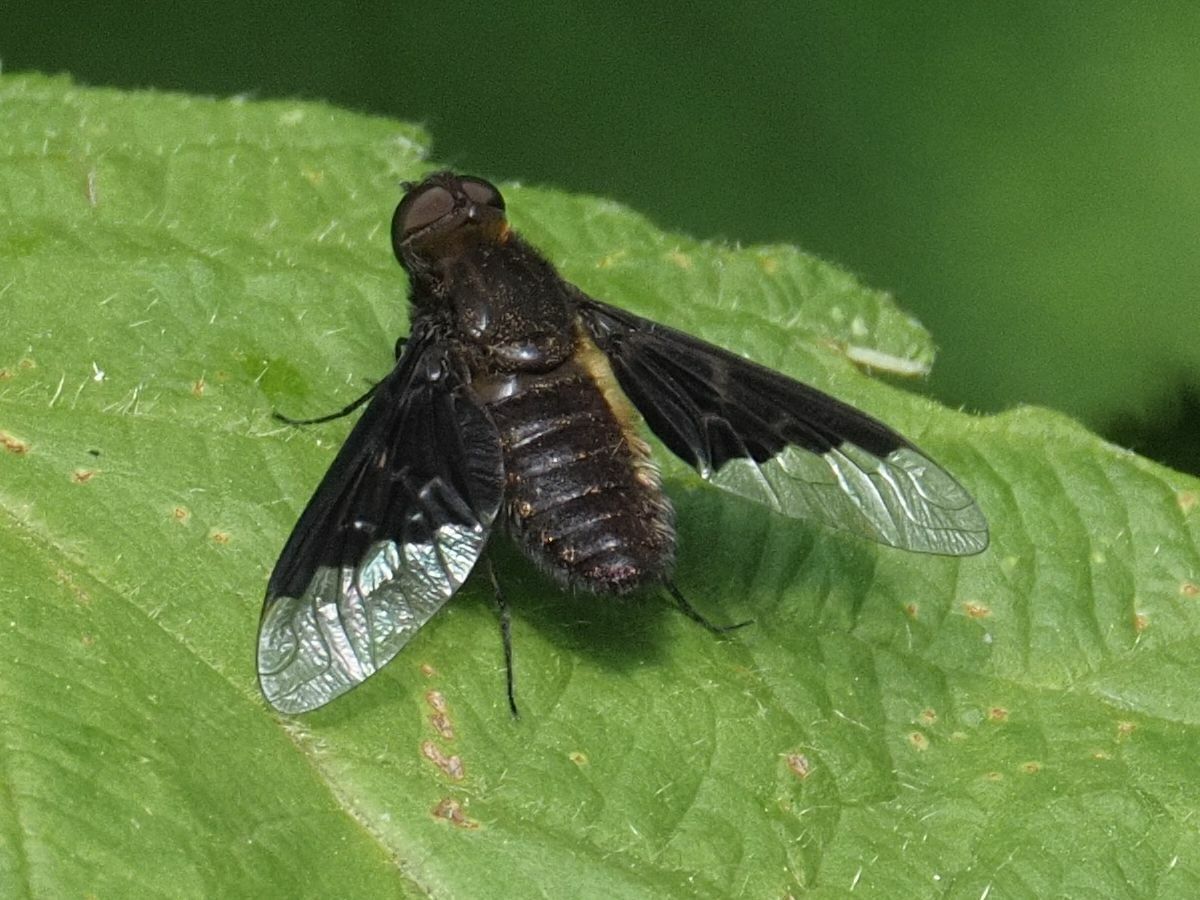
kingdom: Animalia
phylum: Arthropoda
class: Insecta
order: Diptera
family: Bombyliidae
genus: Hemipenthes
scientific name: Hemipenthes morio
